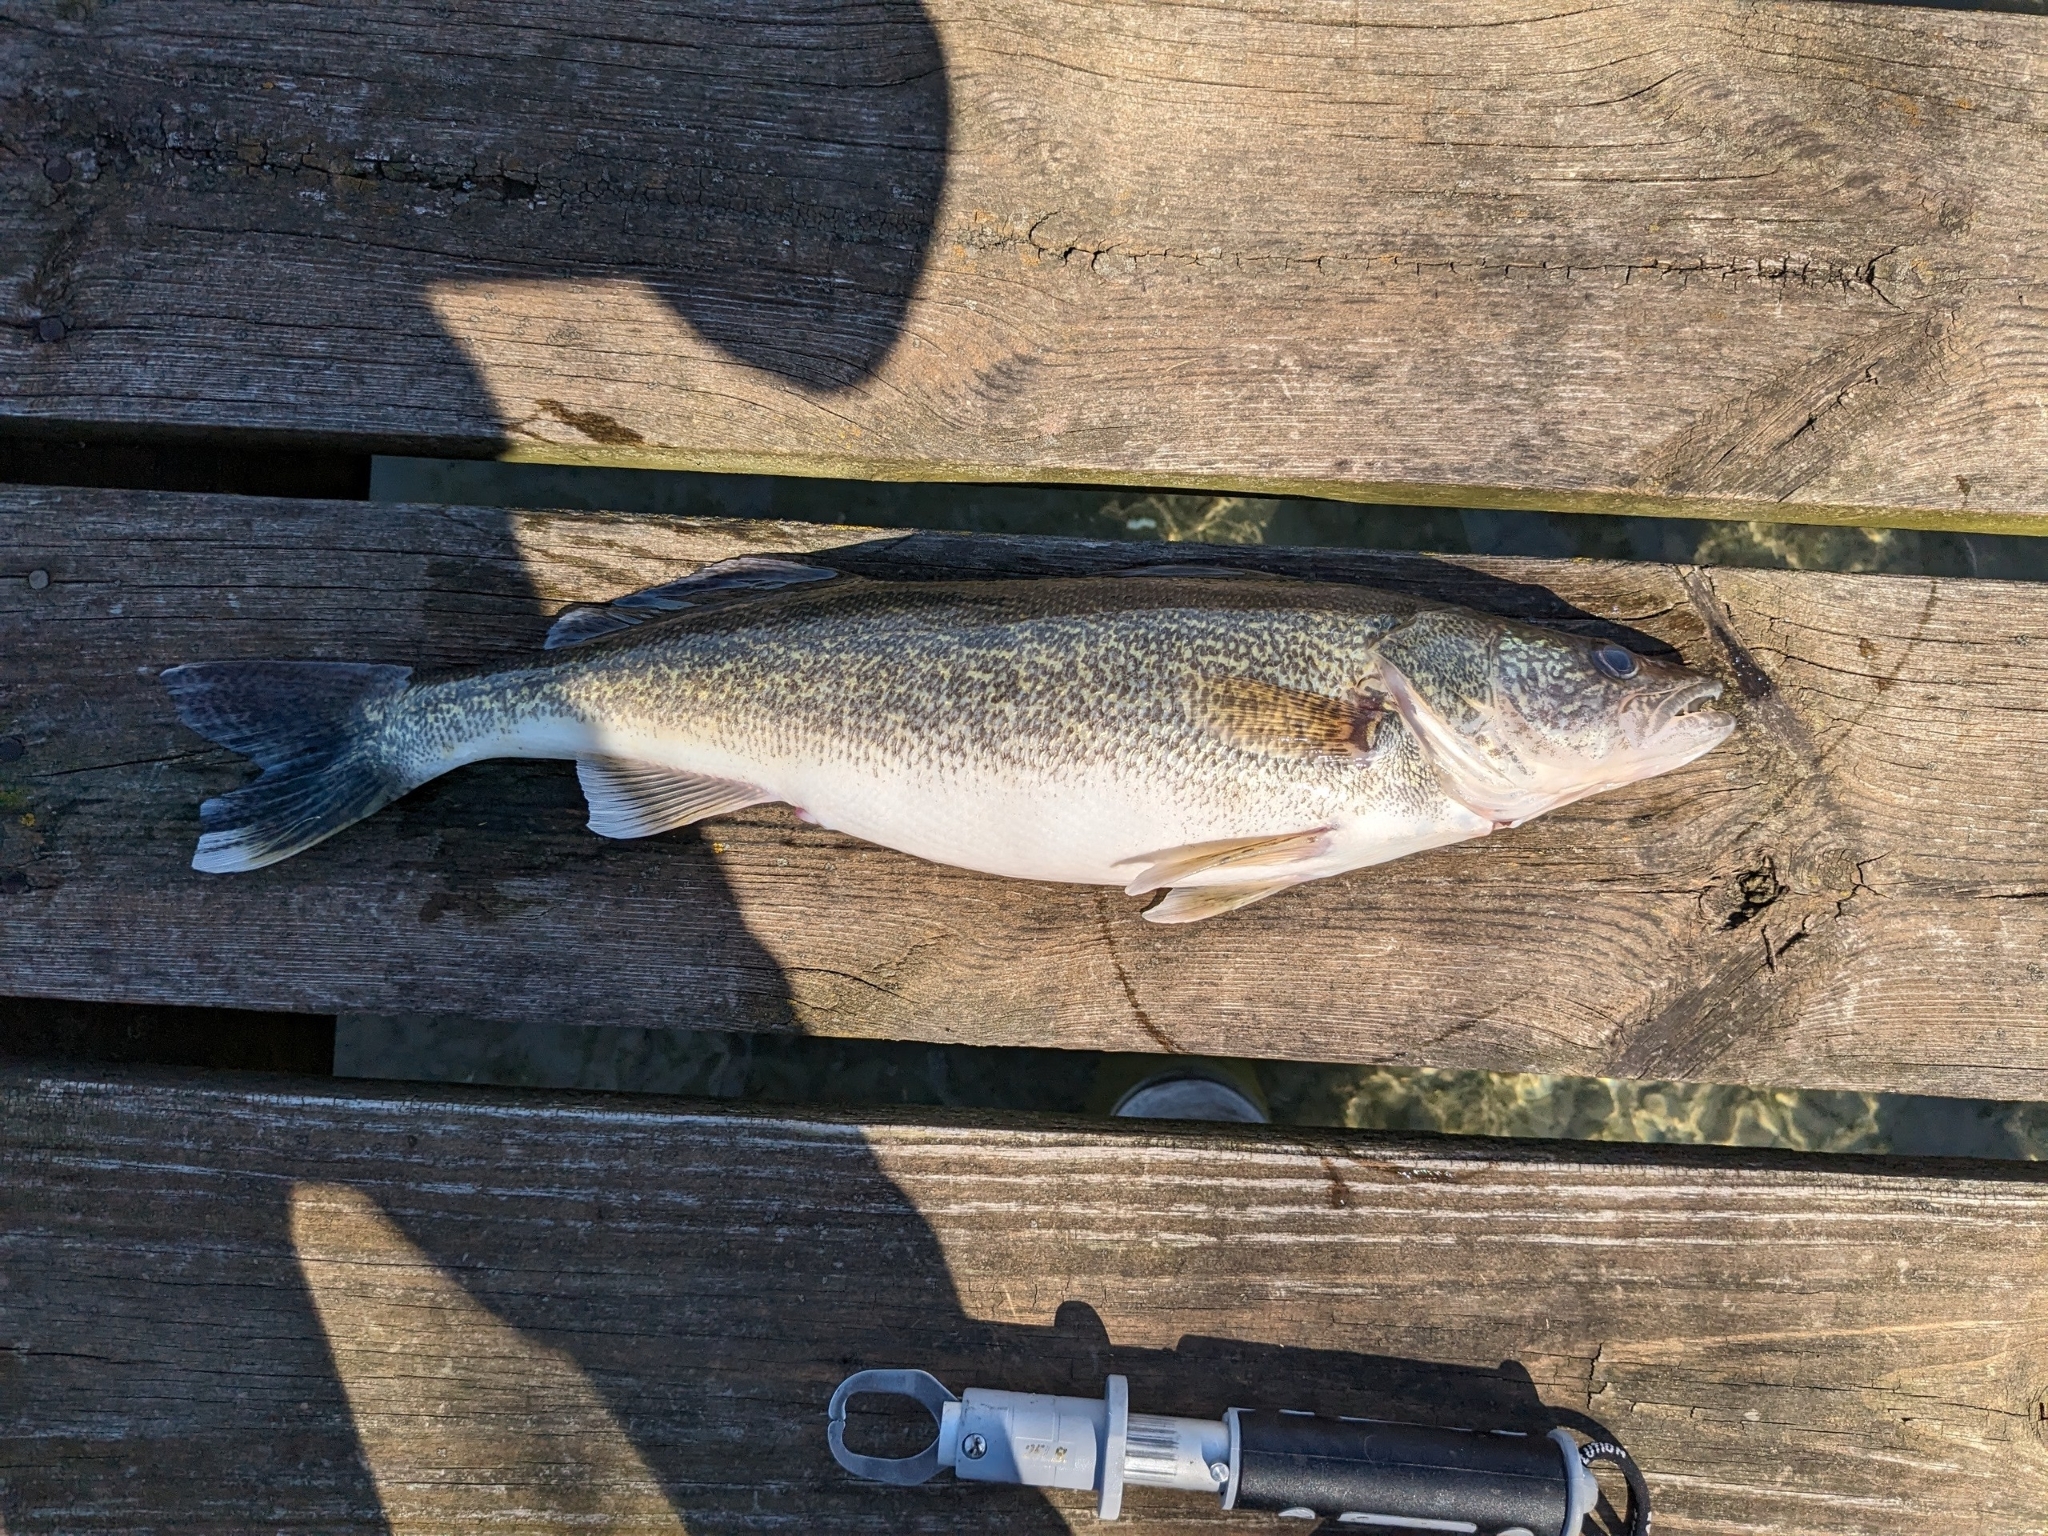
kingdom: Animalia
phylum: Chordata
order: Perciformes
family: Percidae
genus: Sander
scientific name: Sander vitreus
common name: Walleye
